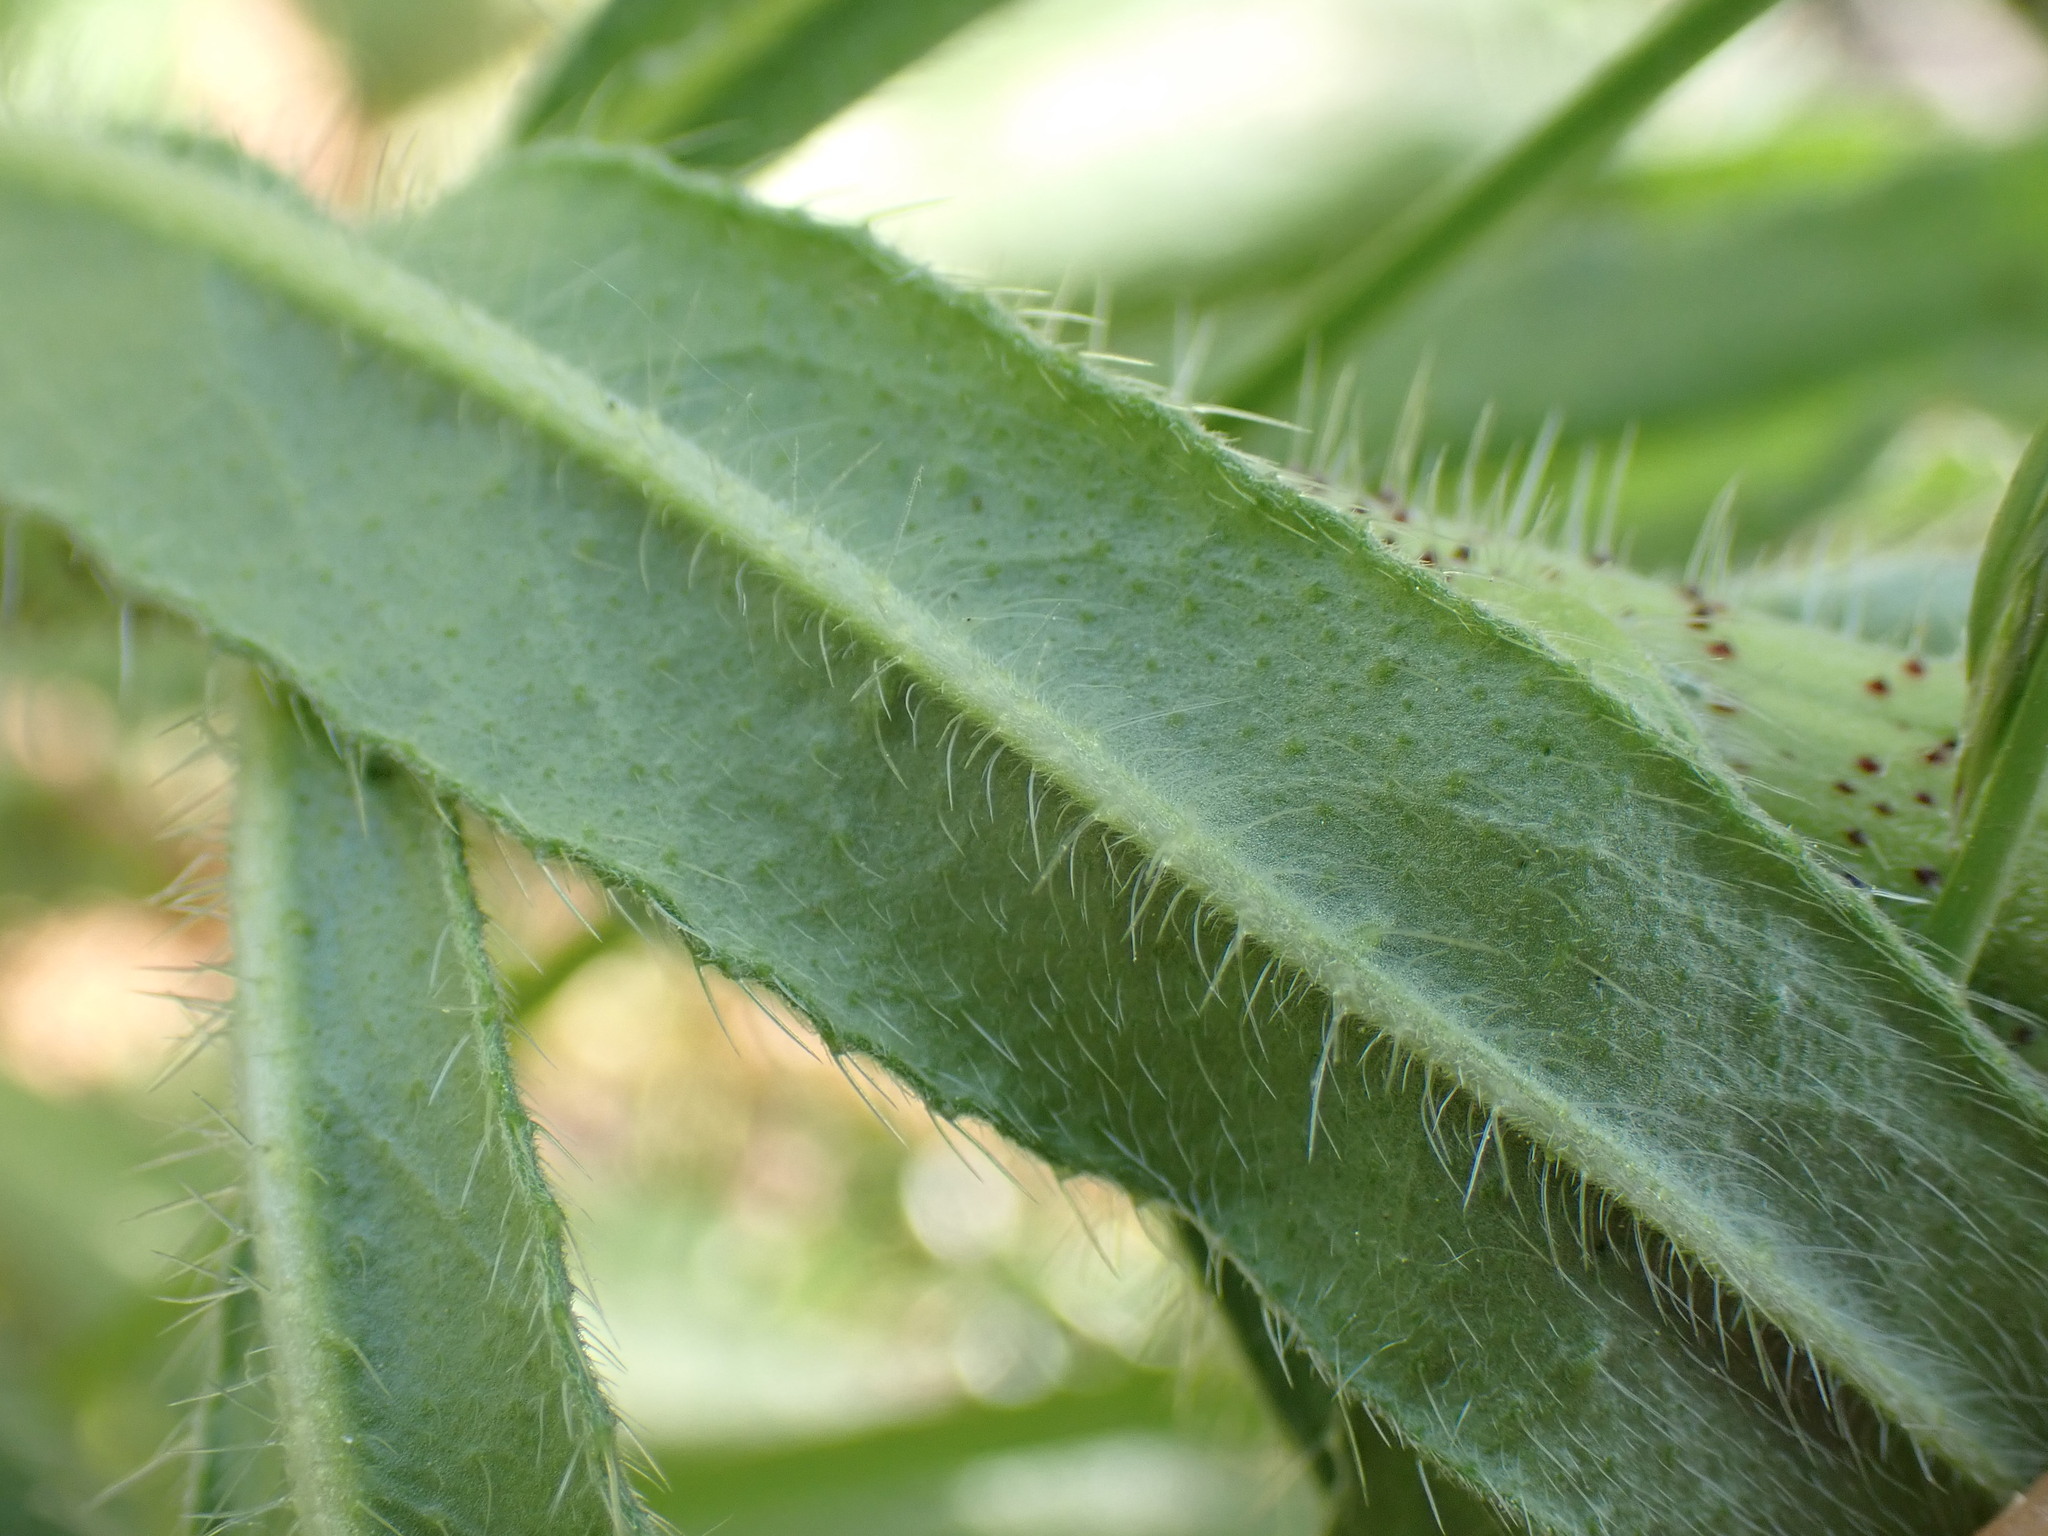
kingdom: Plantae
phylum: Tracheophyta
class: Magnoliopsida
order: Boraginales
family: Boraginaceae
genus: Echium
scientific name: Echium vulgare
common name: Common viper's bugloss
